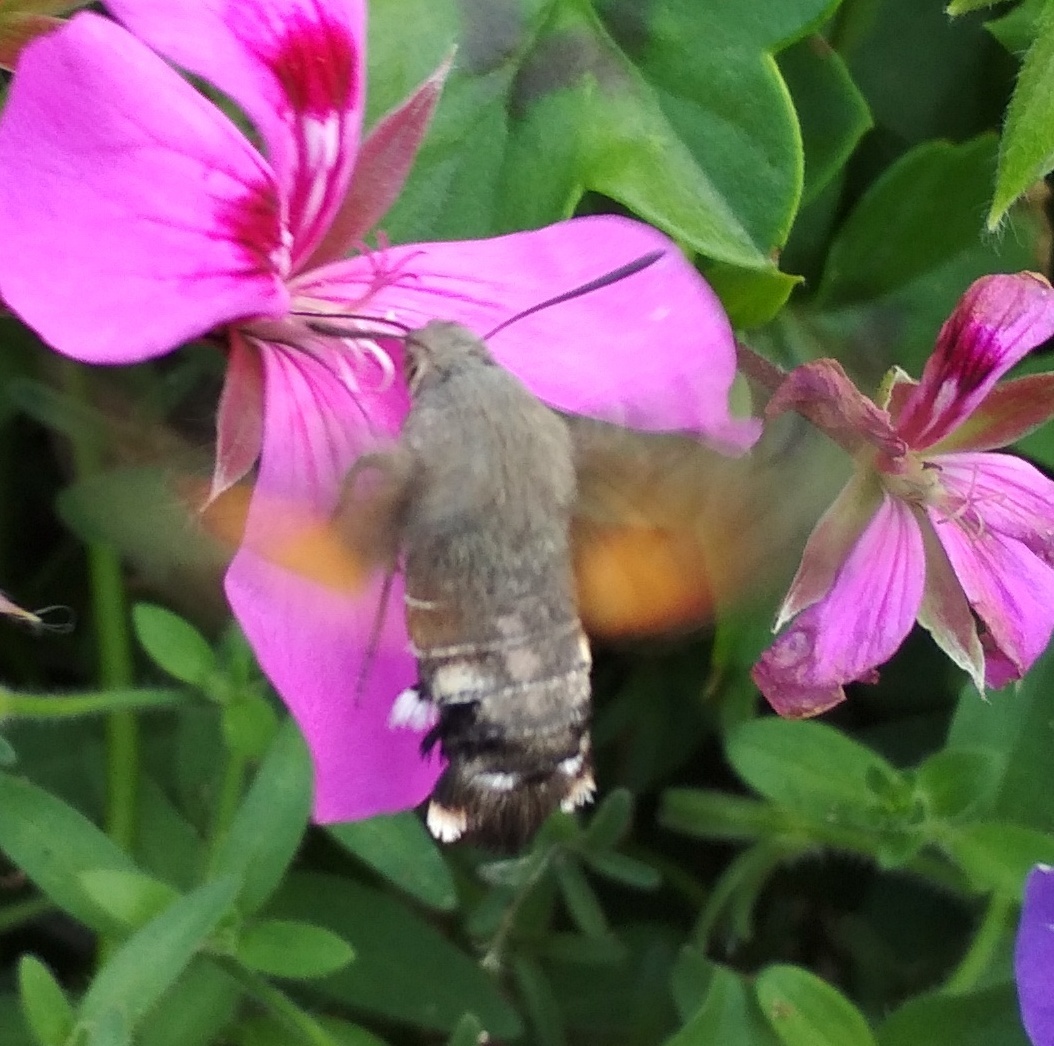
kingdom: Animalia
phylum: Arthropoda
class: Insecta
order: Lepidoptera
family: Sphingidae
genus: Macroglossum
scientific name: Macroglossum stellatarum
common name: Humming-bird hawk-moth
